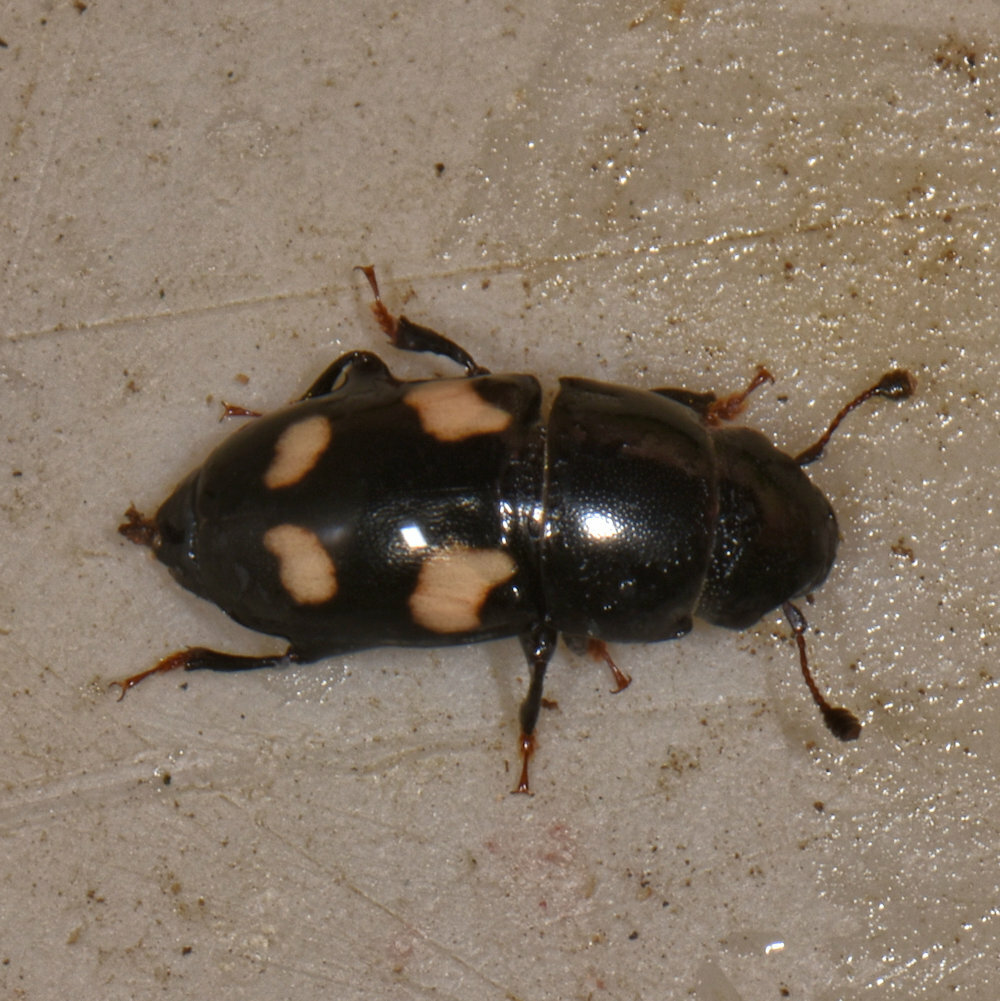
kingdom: Animalia
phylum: Arthropoda
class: Insecta
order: Coleoptera
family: Nitidulidae
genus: Glischrochilus
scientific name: Glischrochilus quadrisignatus
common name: Picnic beetle
